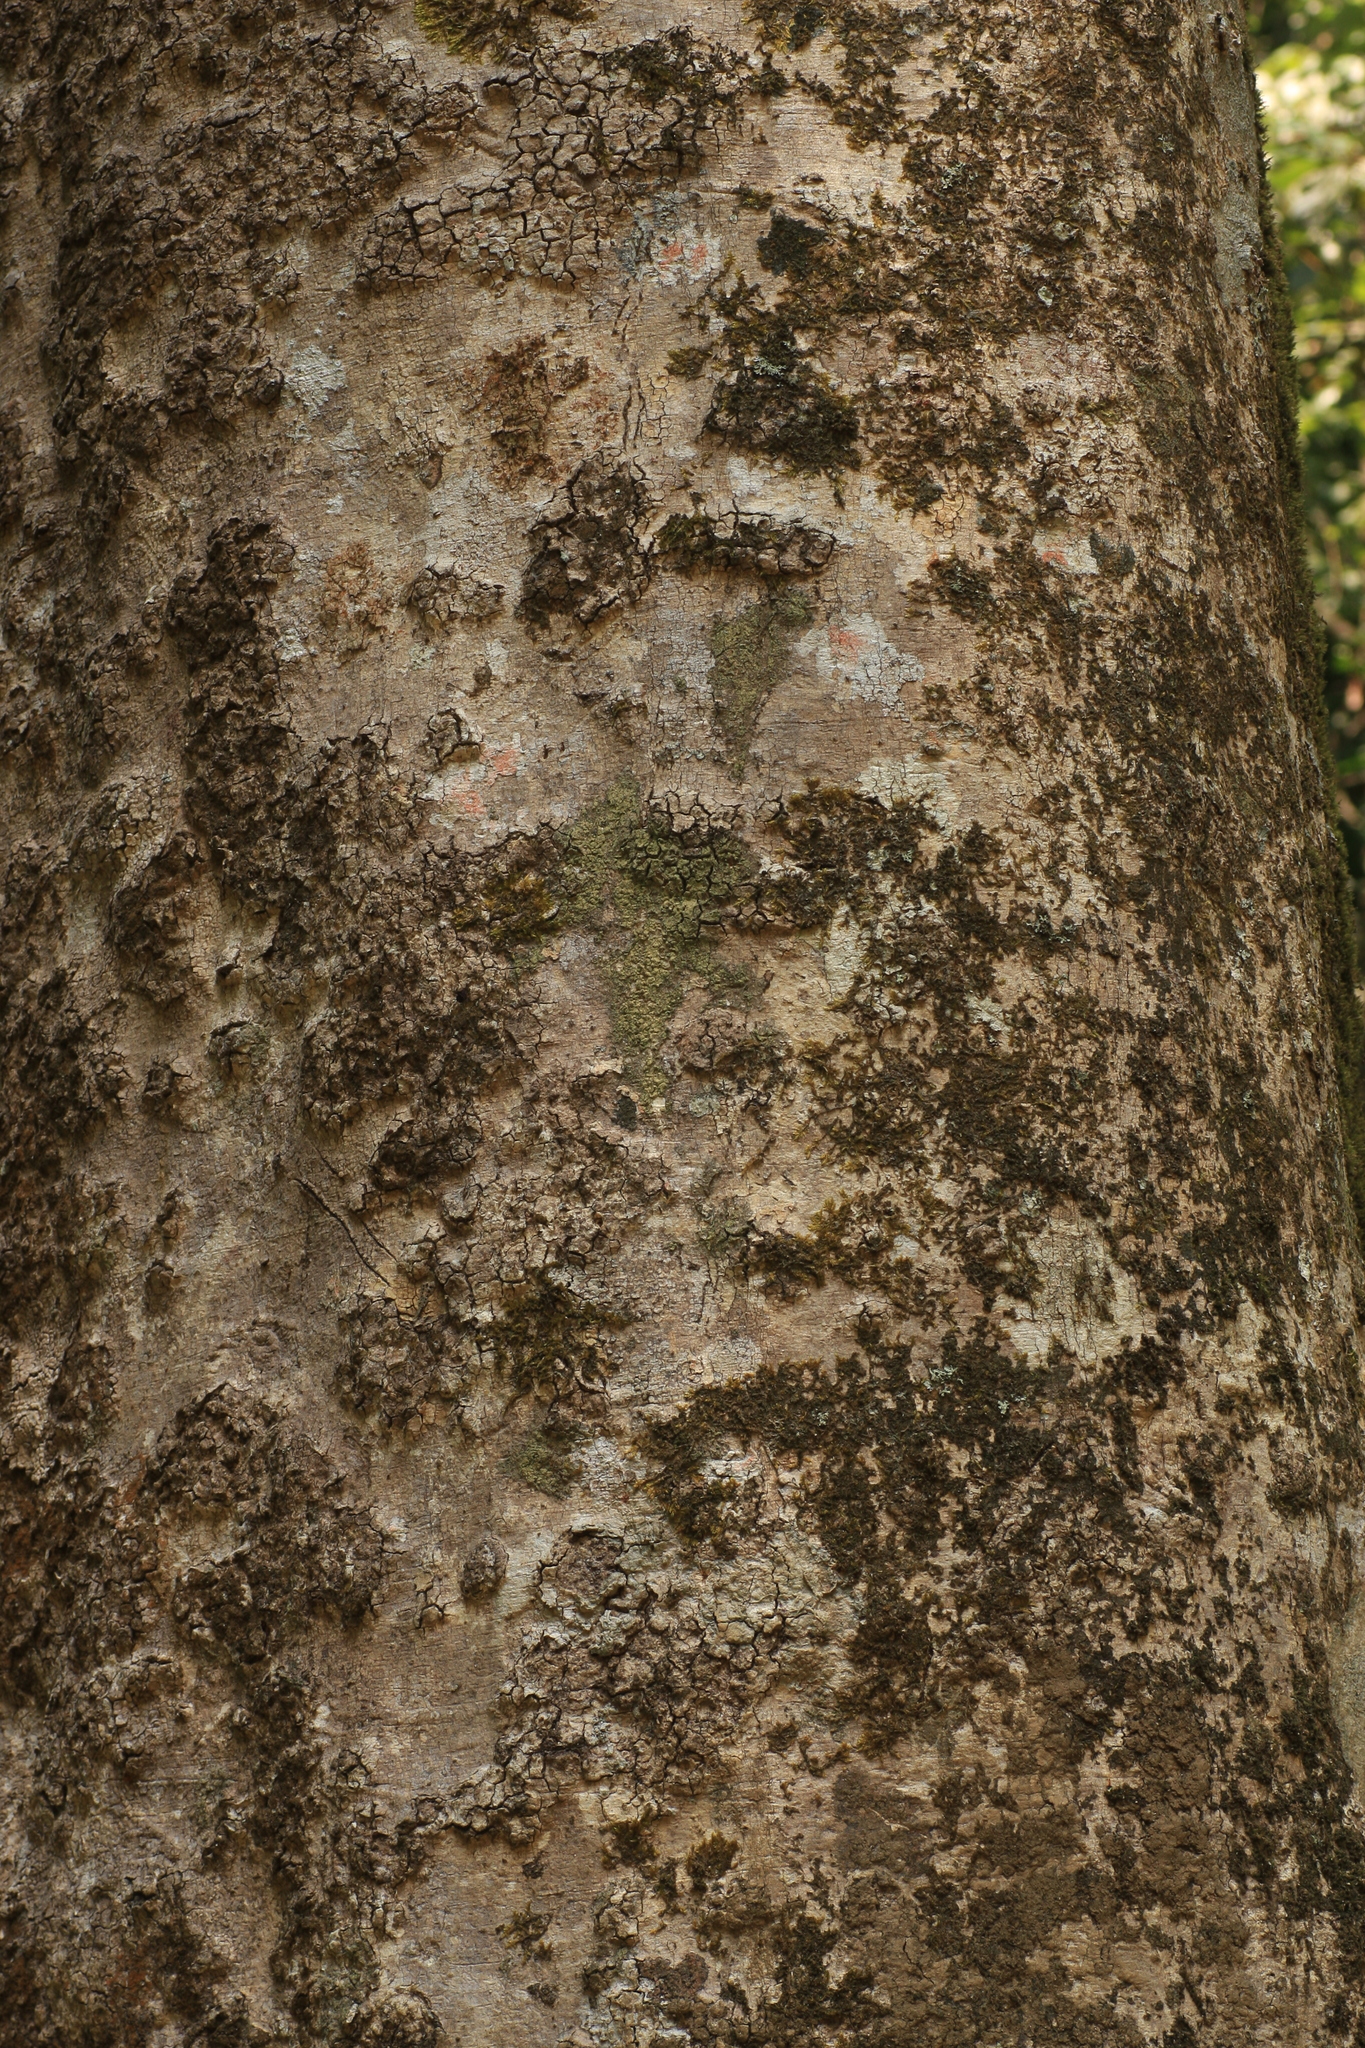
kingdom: Plantae
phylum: Tracheophyta
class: Magnoliopsida
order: Myrtales
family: Myrtaceae
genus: Syzygium
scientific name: Syzygium gardneri
